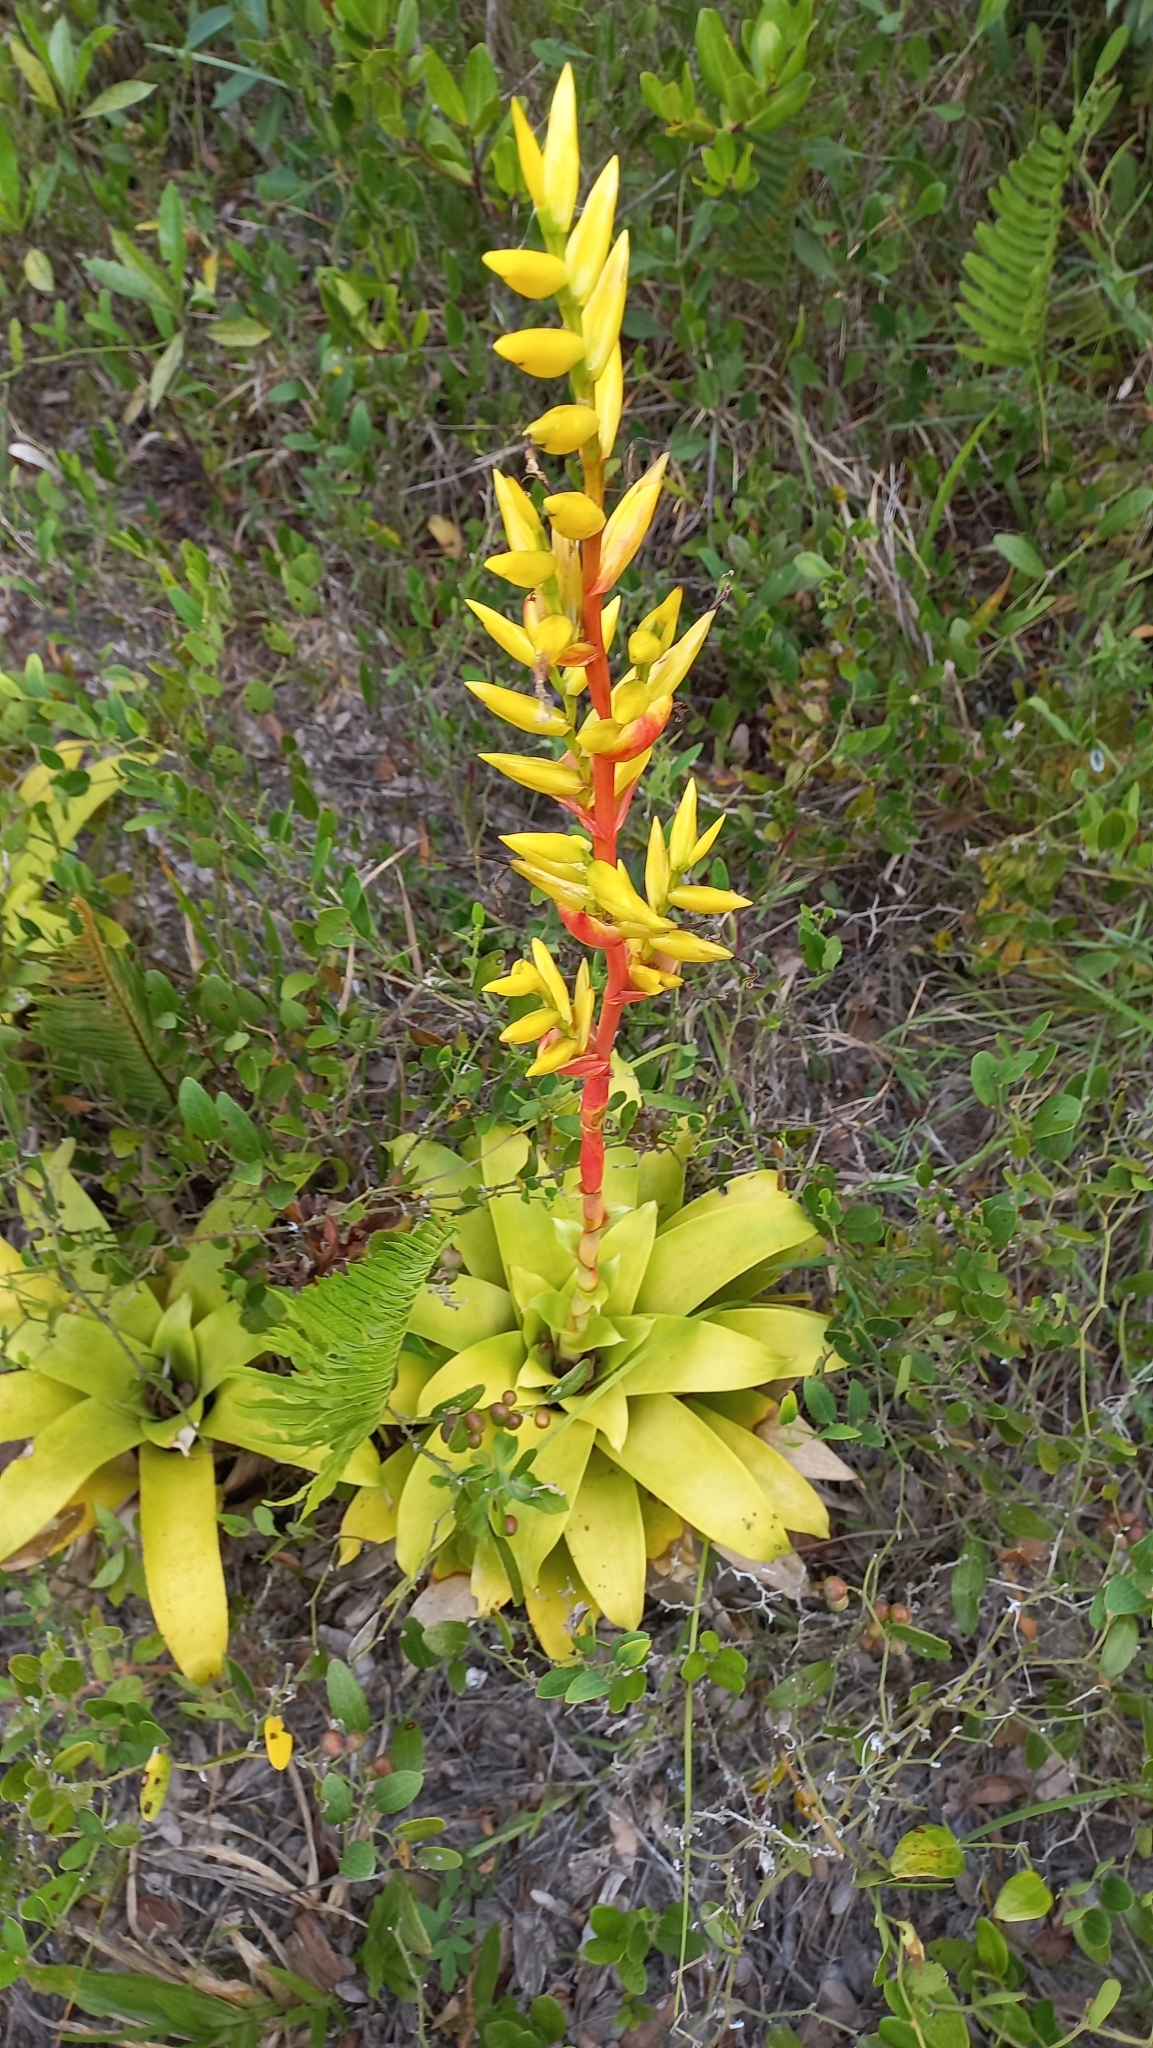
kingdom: Plantae
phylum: Tracheophyta
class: Liliopsida
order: Poales
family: Bromeliaceae
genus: Vriesea
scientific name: Vriesea friburgensis
